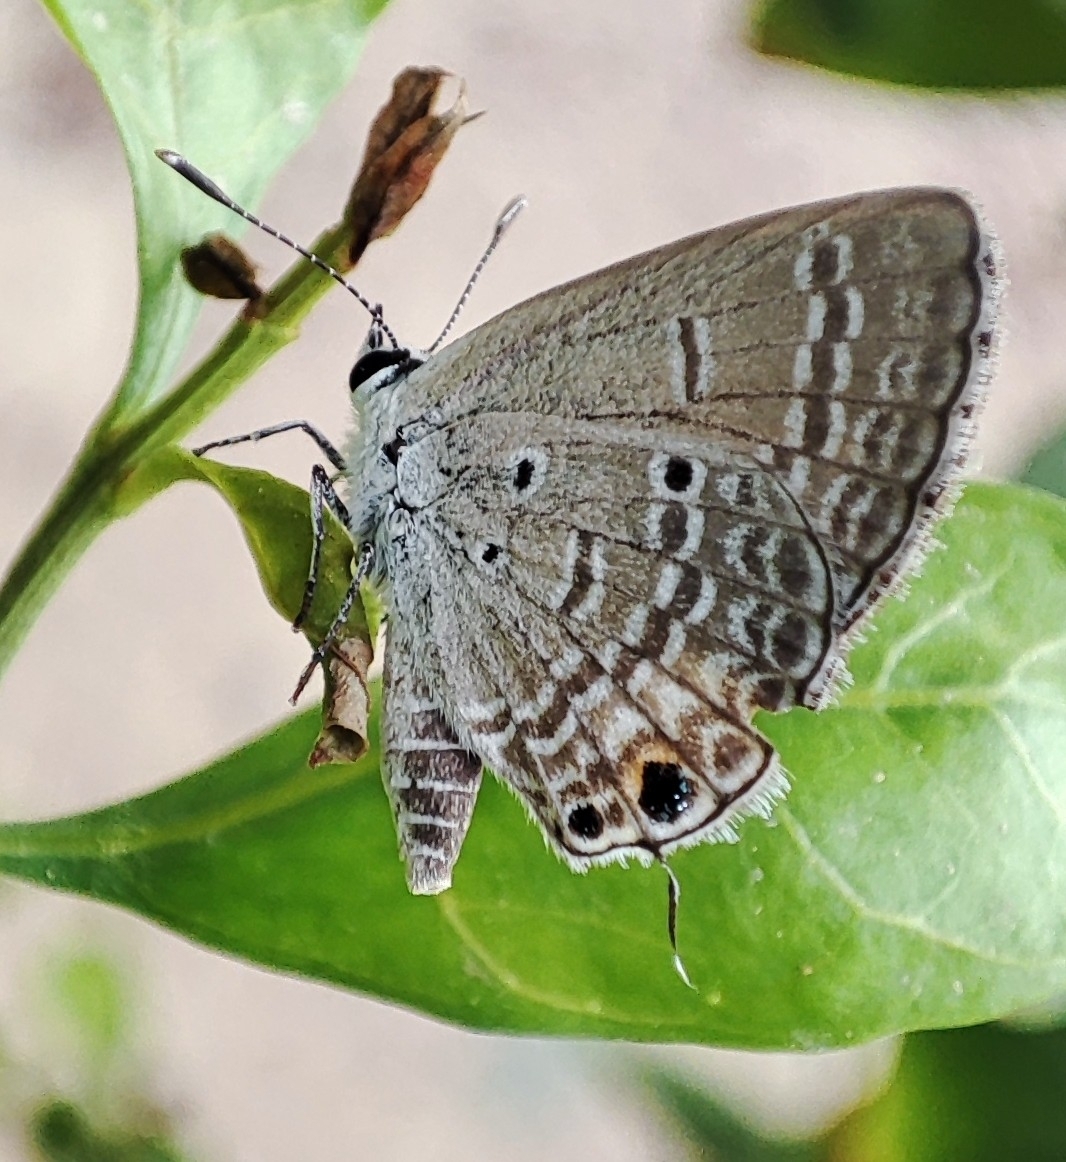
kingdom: Animalia
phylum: Arthropoda
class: Insecta
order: Lepidoptera
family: Lycaenidae
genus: Luthrodes
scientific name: Luthrodes pandava
